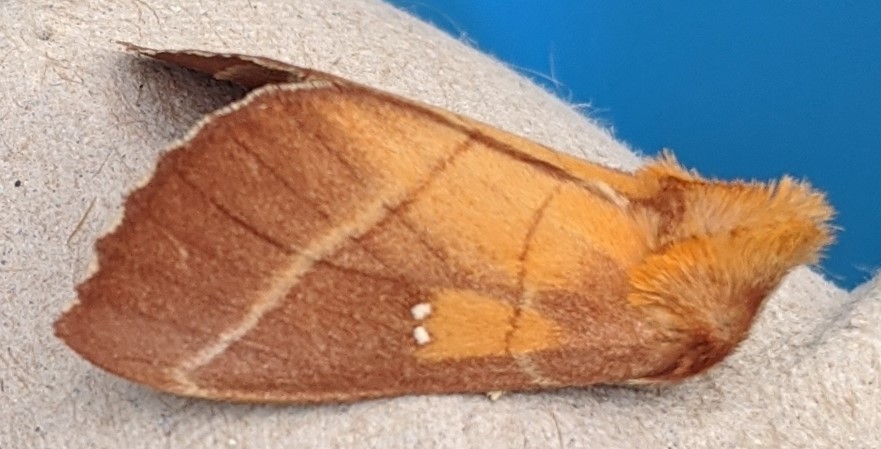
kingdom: Animalia
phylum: Arthropoda
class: Insecta
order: Lepidoptera
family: Notodontidae
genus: Nadata
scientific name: Nadata gibbosa
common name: White-dotted prominent
